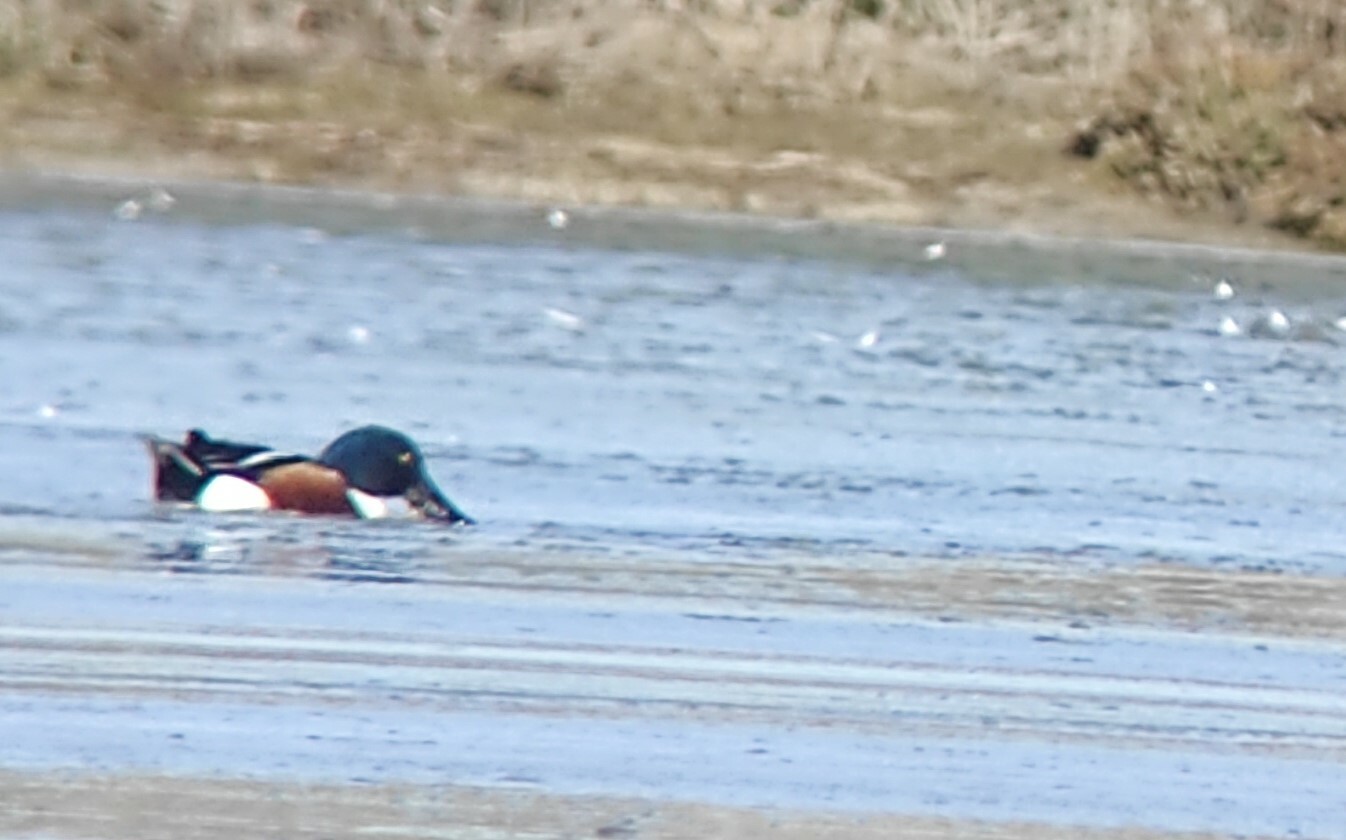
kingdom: Animalia
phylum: Chordata
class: Aves
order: Anseriformes
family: Anatidae
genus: Spatula
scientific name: Spatula clypeata
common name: Northern shoveler
